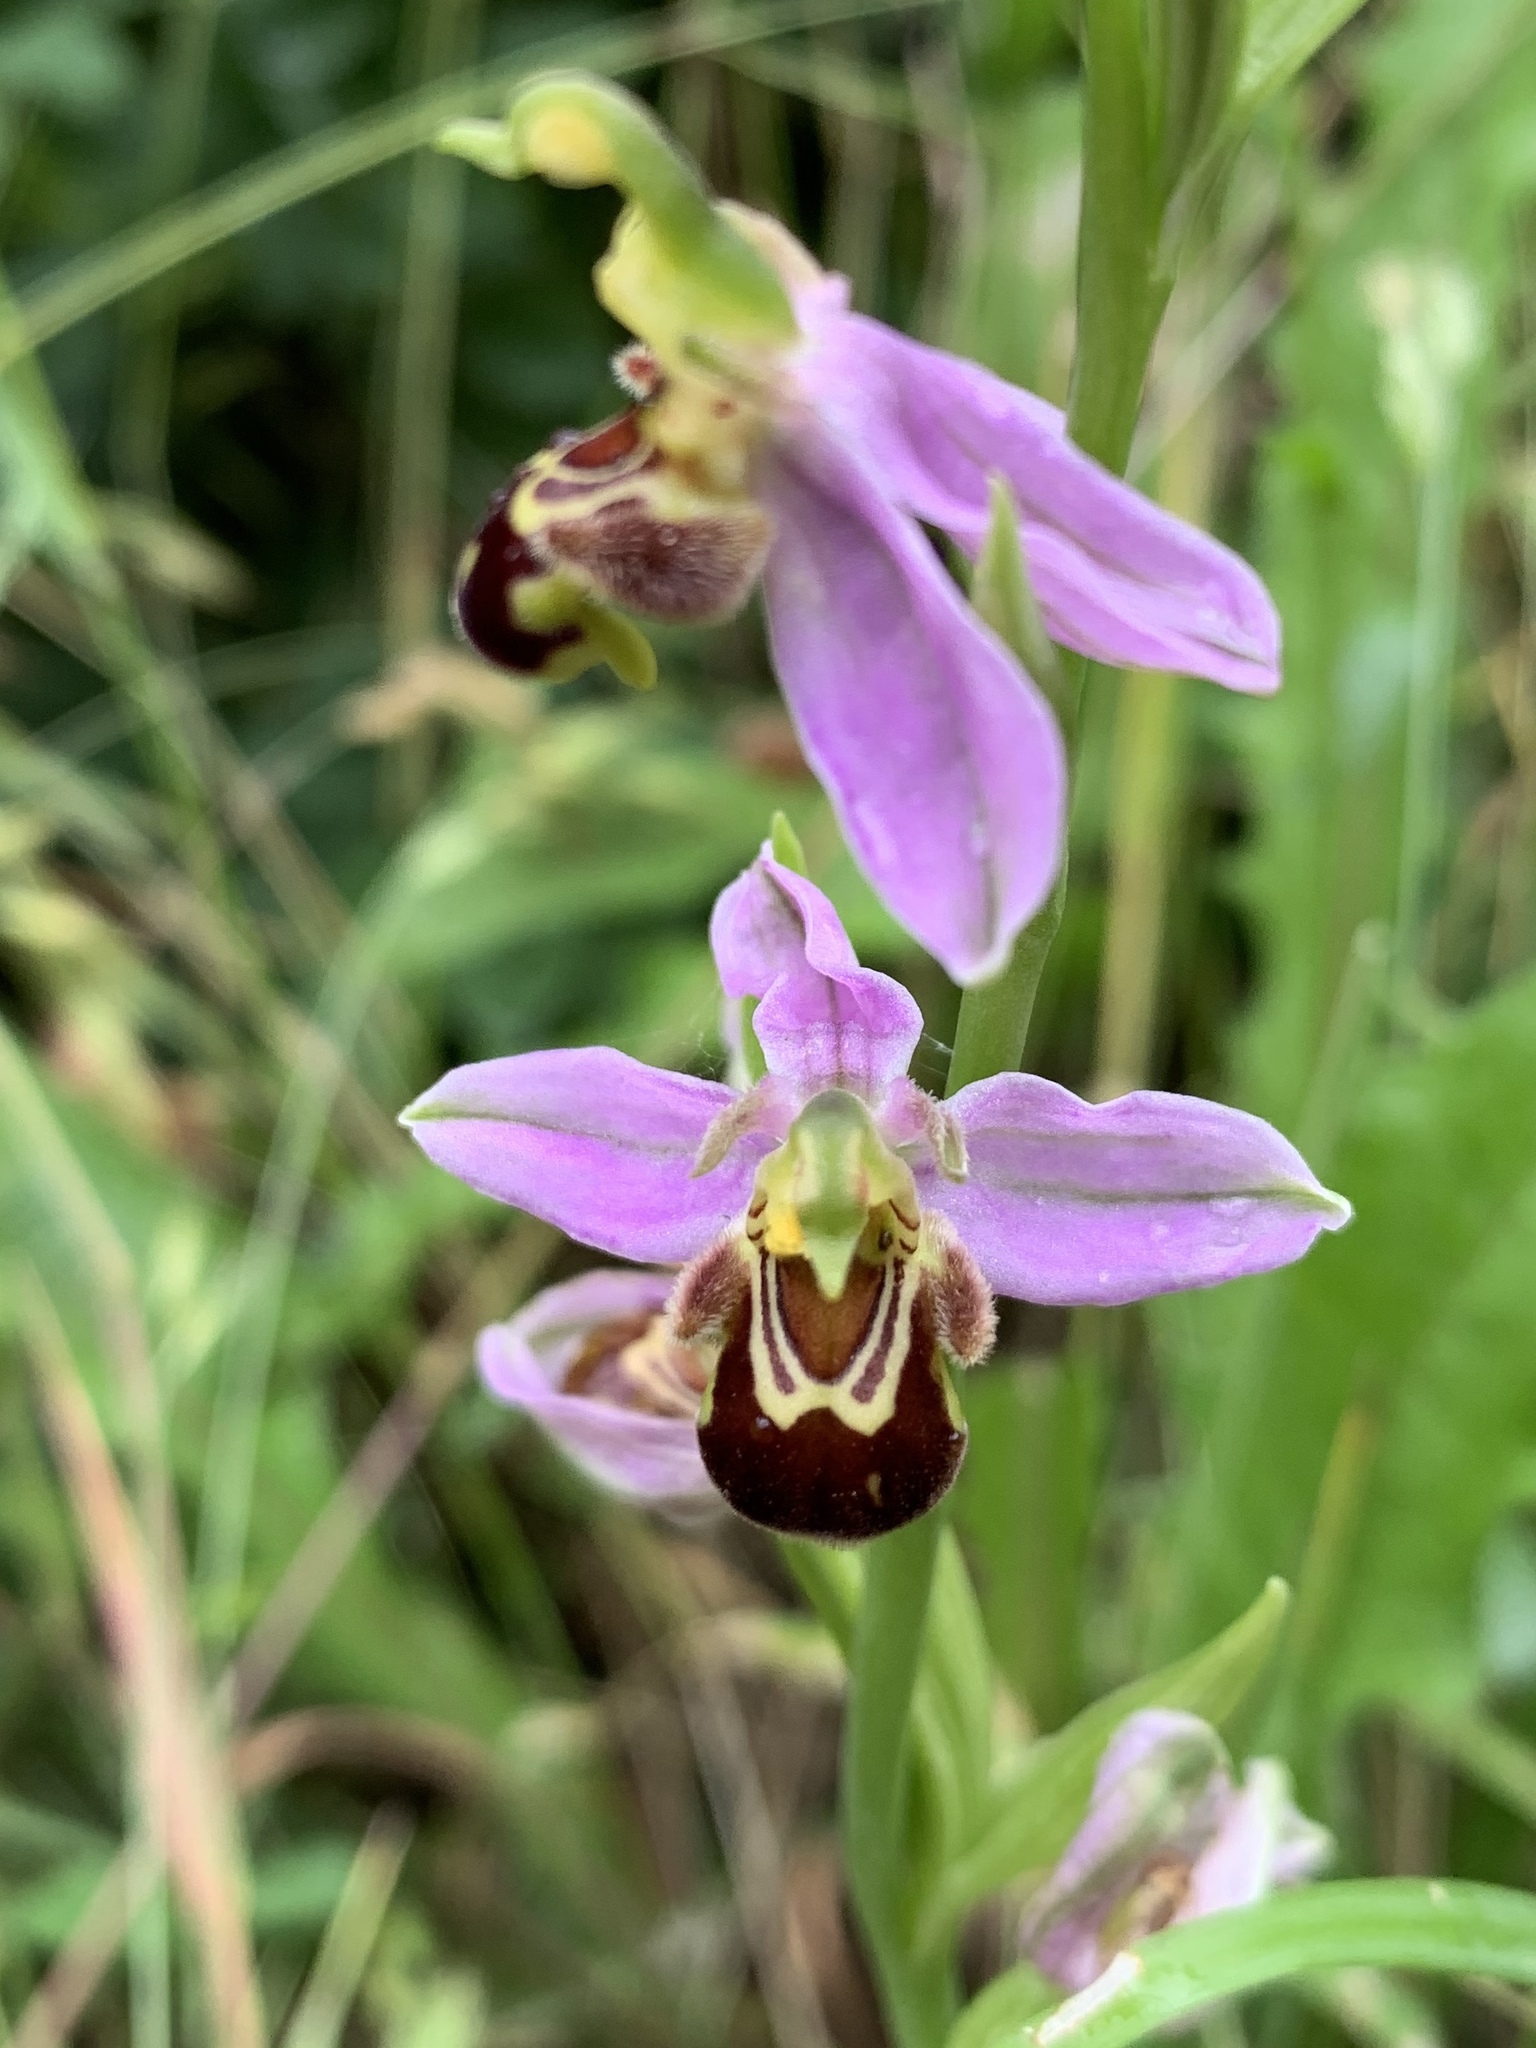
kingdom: Plantae
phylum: Tracheophyta
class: Liliopsida
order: Asparagales
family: Orchidaceae
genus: Ophrys
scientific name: Ophrys apifera
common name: Bee orchid
